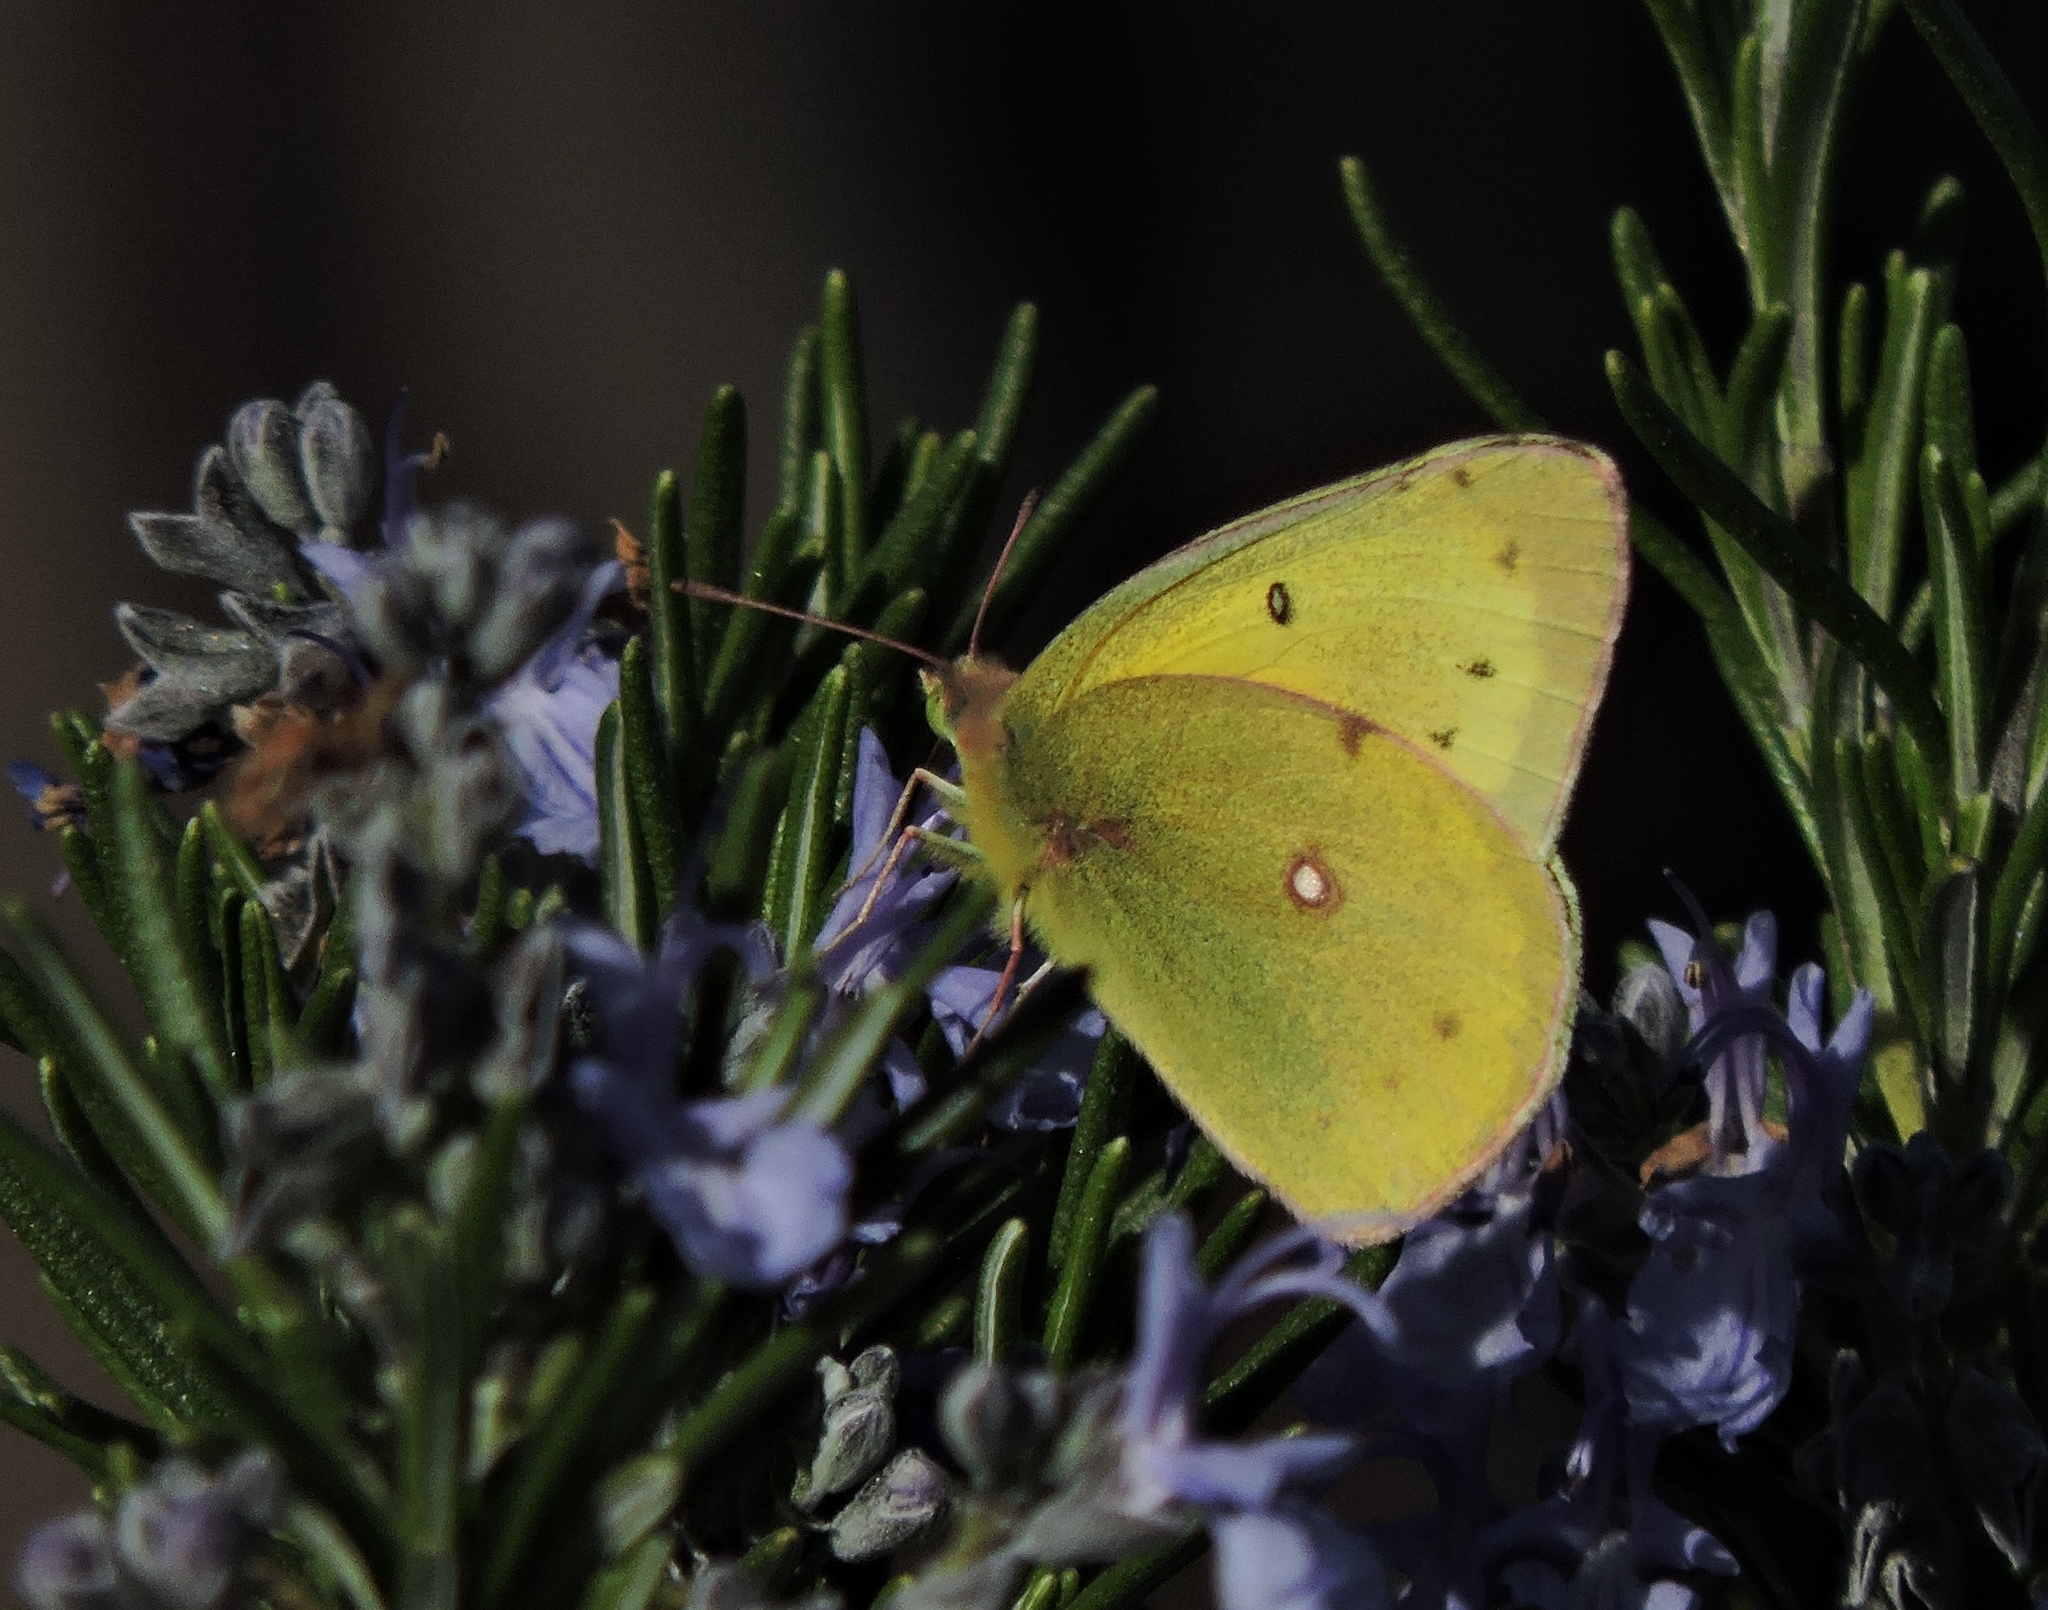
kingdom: Animalia
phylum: Arthropoda
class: Insecta
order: Lepidoptera
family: Pieridae
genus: Colias
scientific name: Colias eurytheme
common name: Alfalfa butterfly
